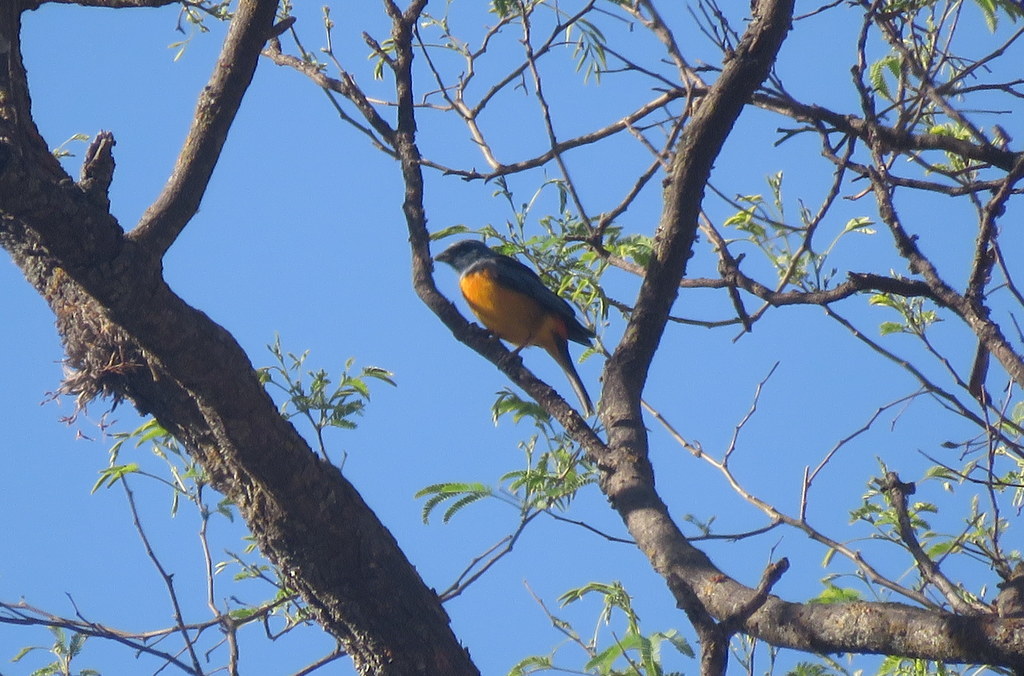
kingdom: Animalia
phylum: Chordata
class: Aves
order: Passeriformes
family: Thraupidae
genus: Rauenia
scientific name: Rauenia bonariensis
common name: Blue-and-yellow tanager
